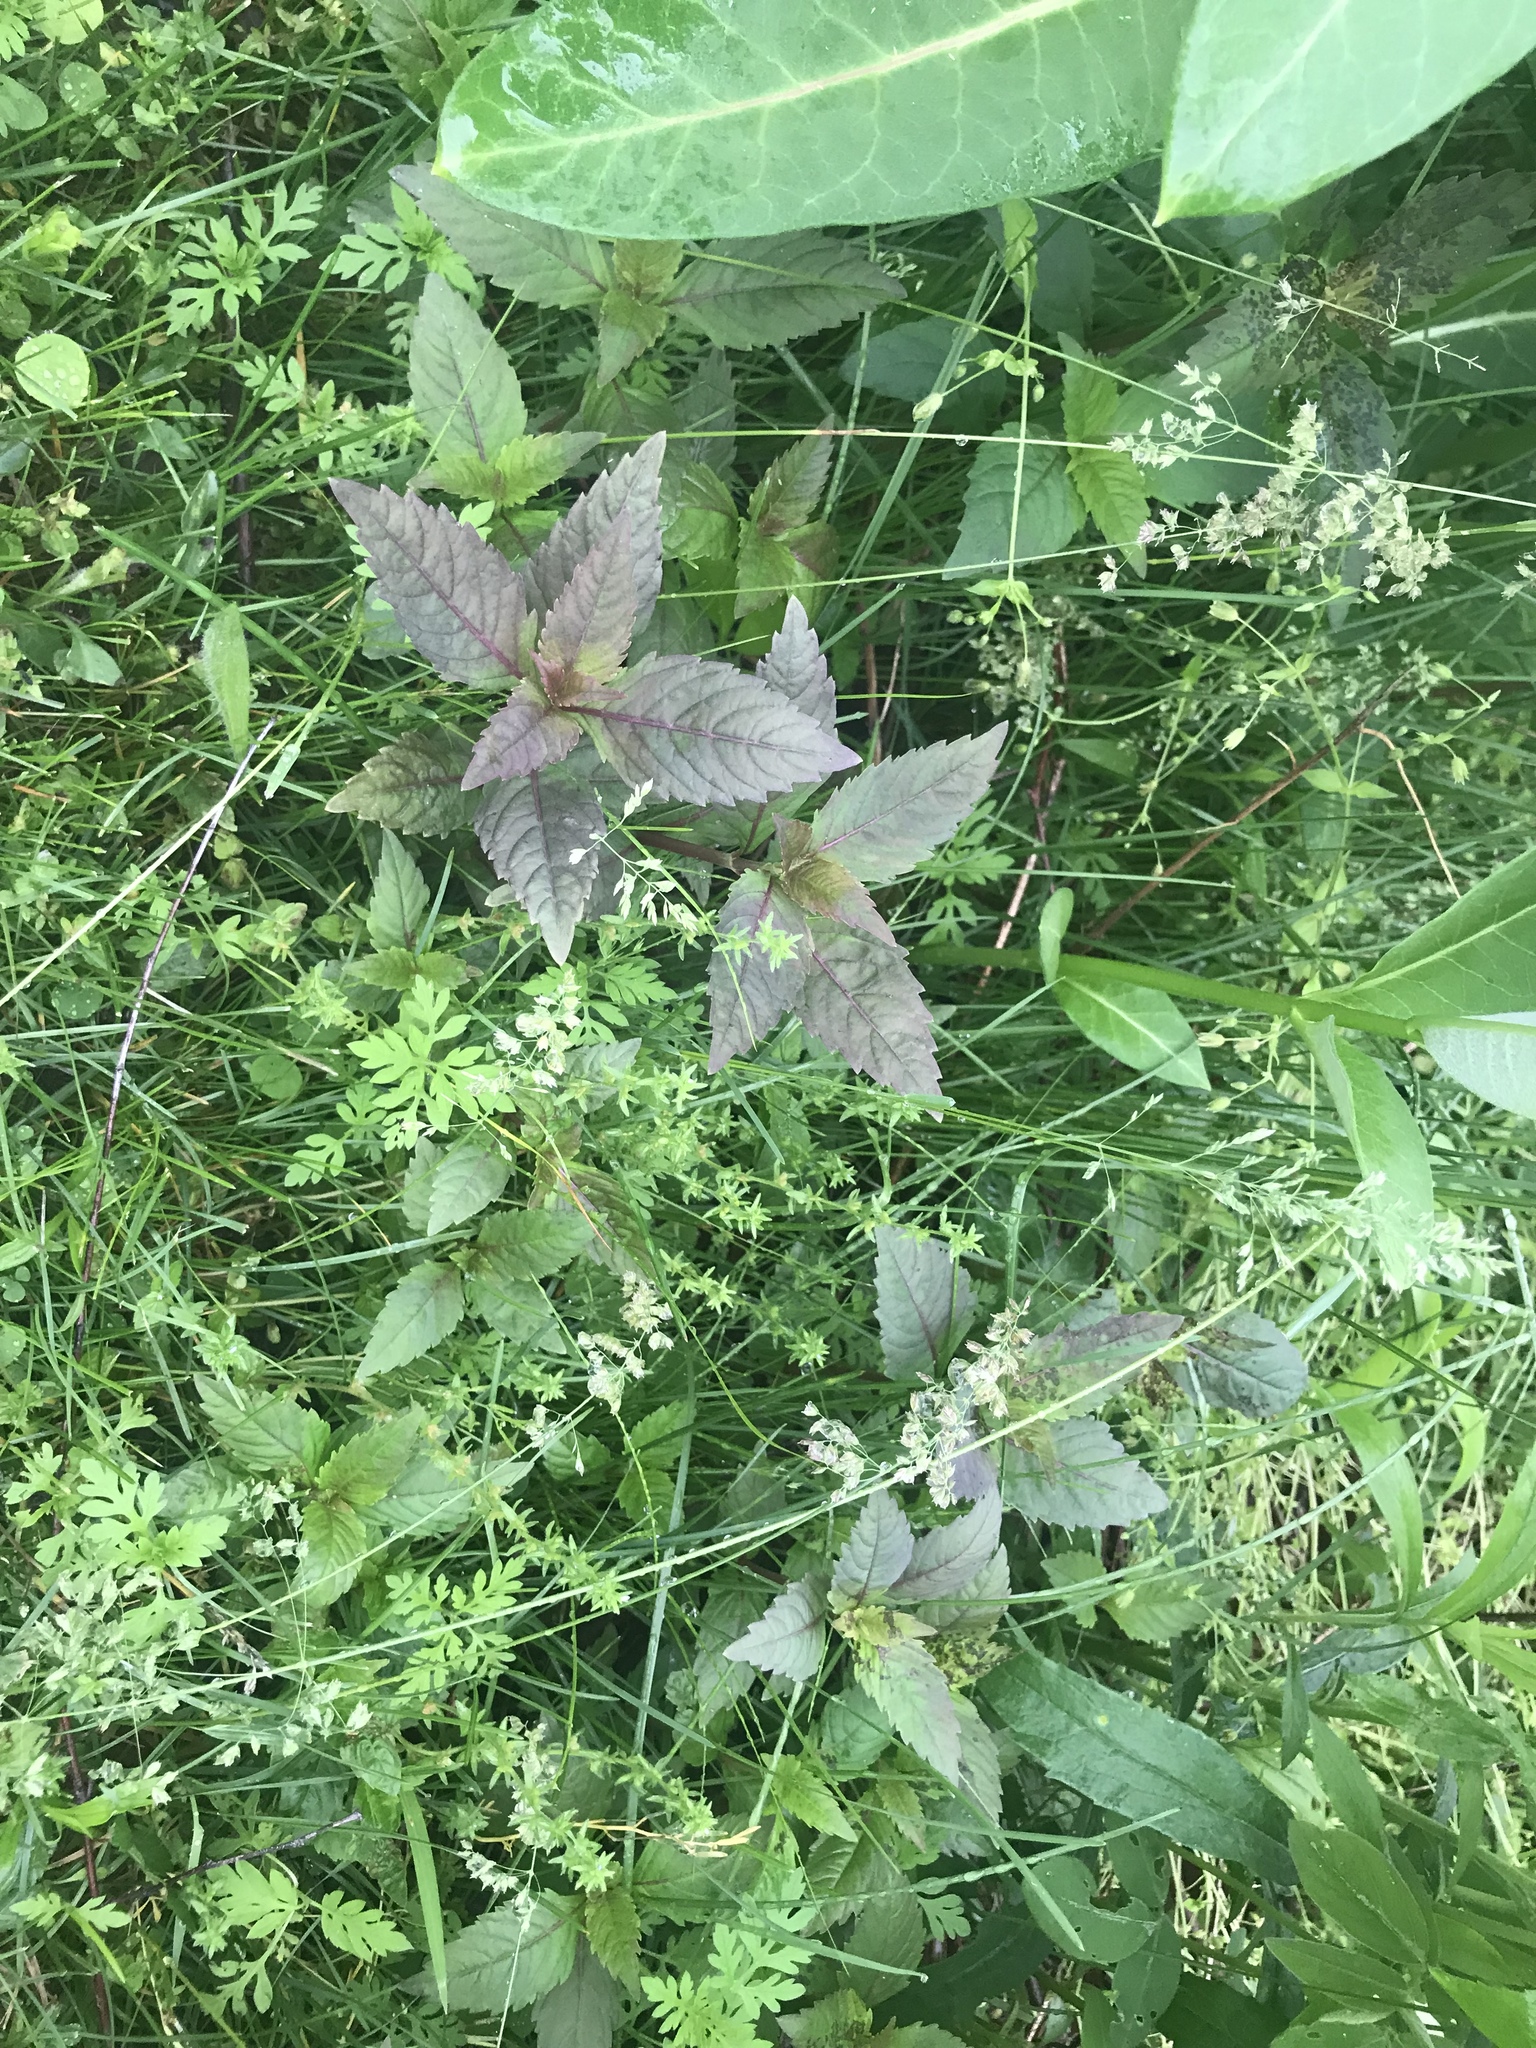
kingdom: Plantae
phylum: Tracheophyta
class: Magnoliopsida
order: Lamiales
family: Lamiaceae
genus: Lycopus
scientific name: Lycopus virginicus
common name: Bugleweed
